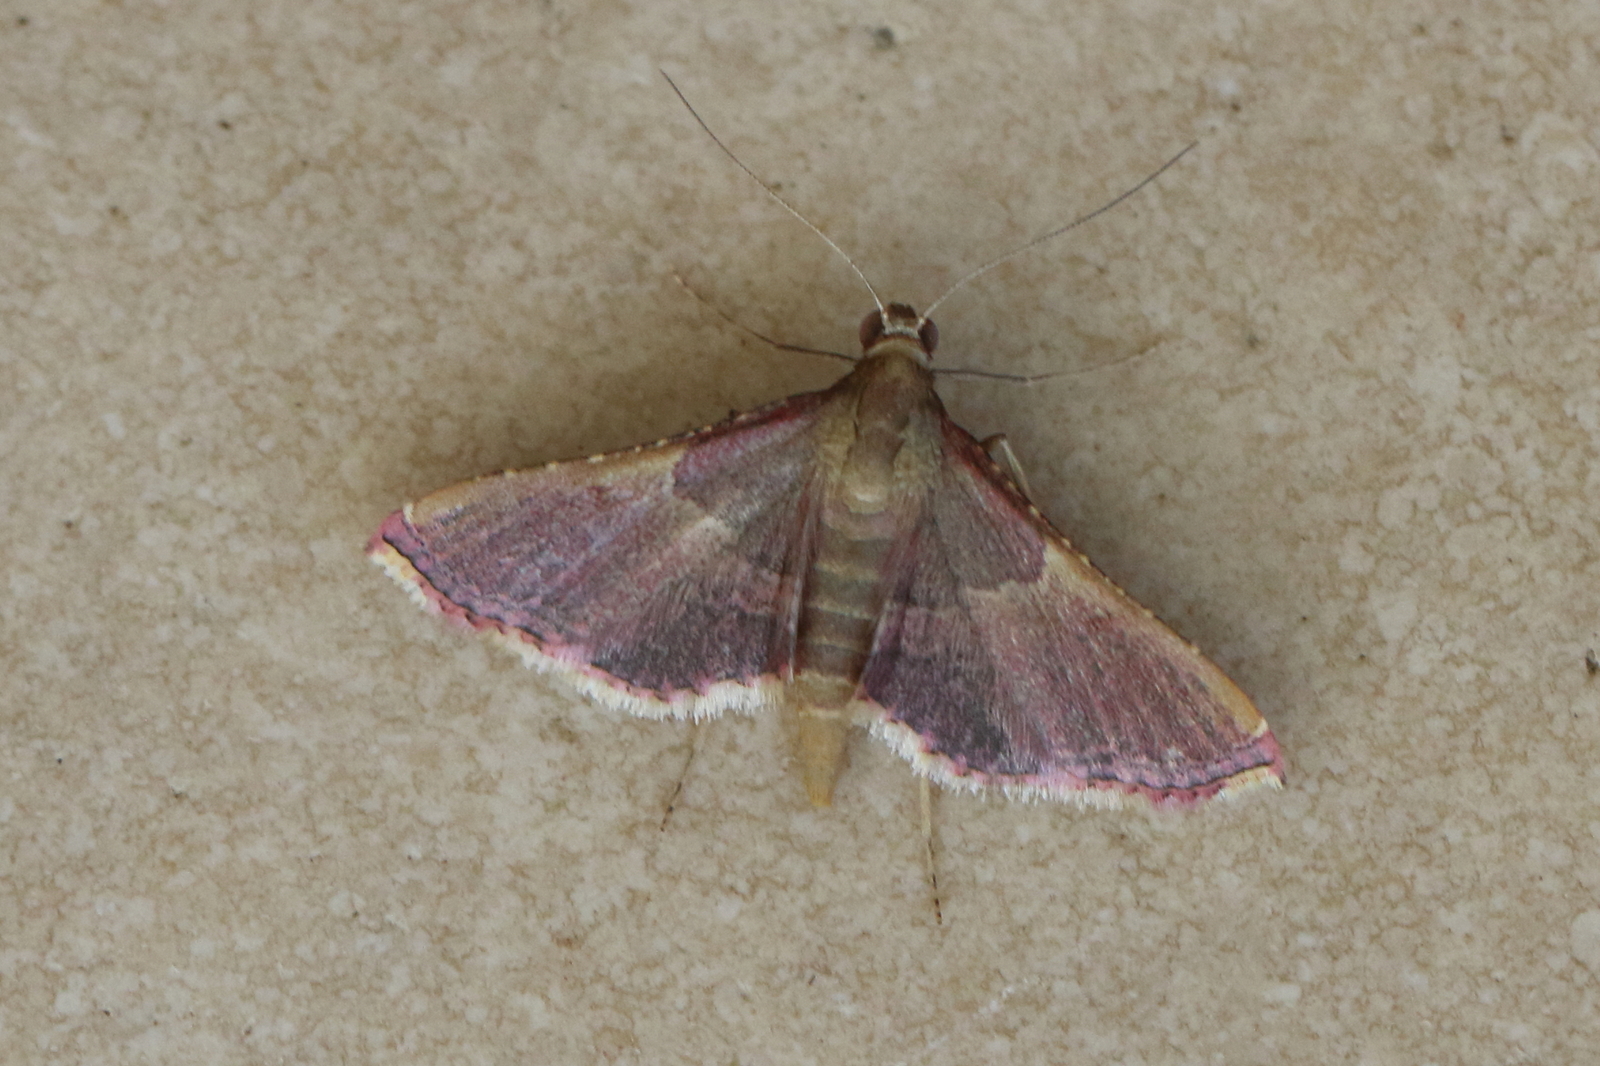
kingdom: Animalia
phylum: Arthropoda
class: Insecta
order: Lepidoptera
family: Pyralidae
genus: Endotricha
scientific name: Endotricha mesenterialis
